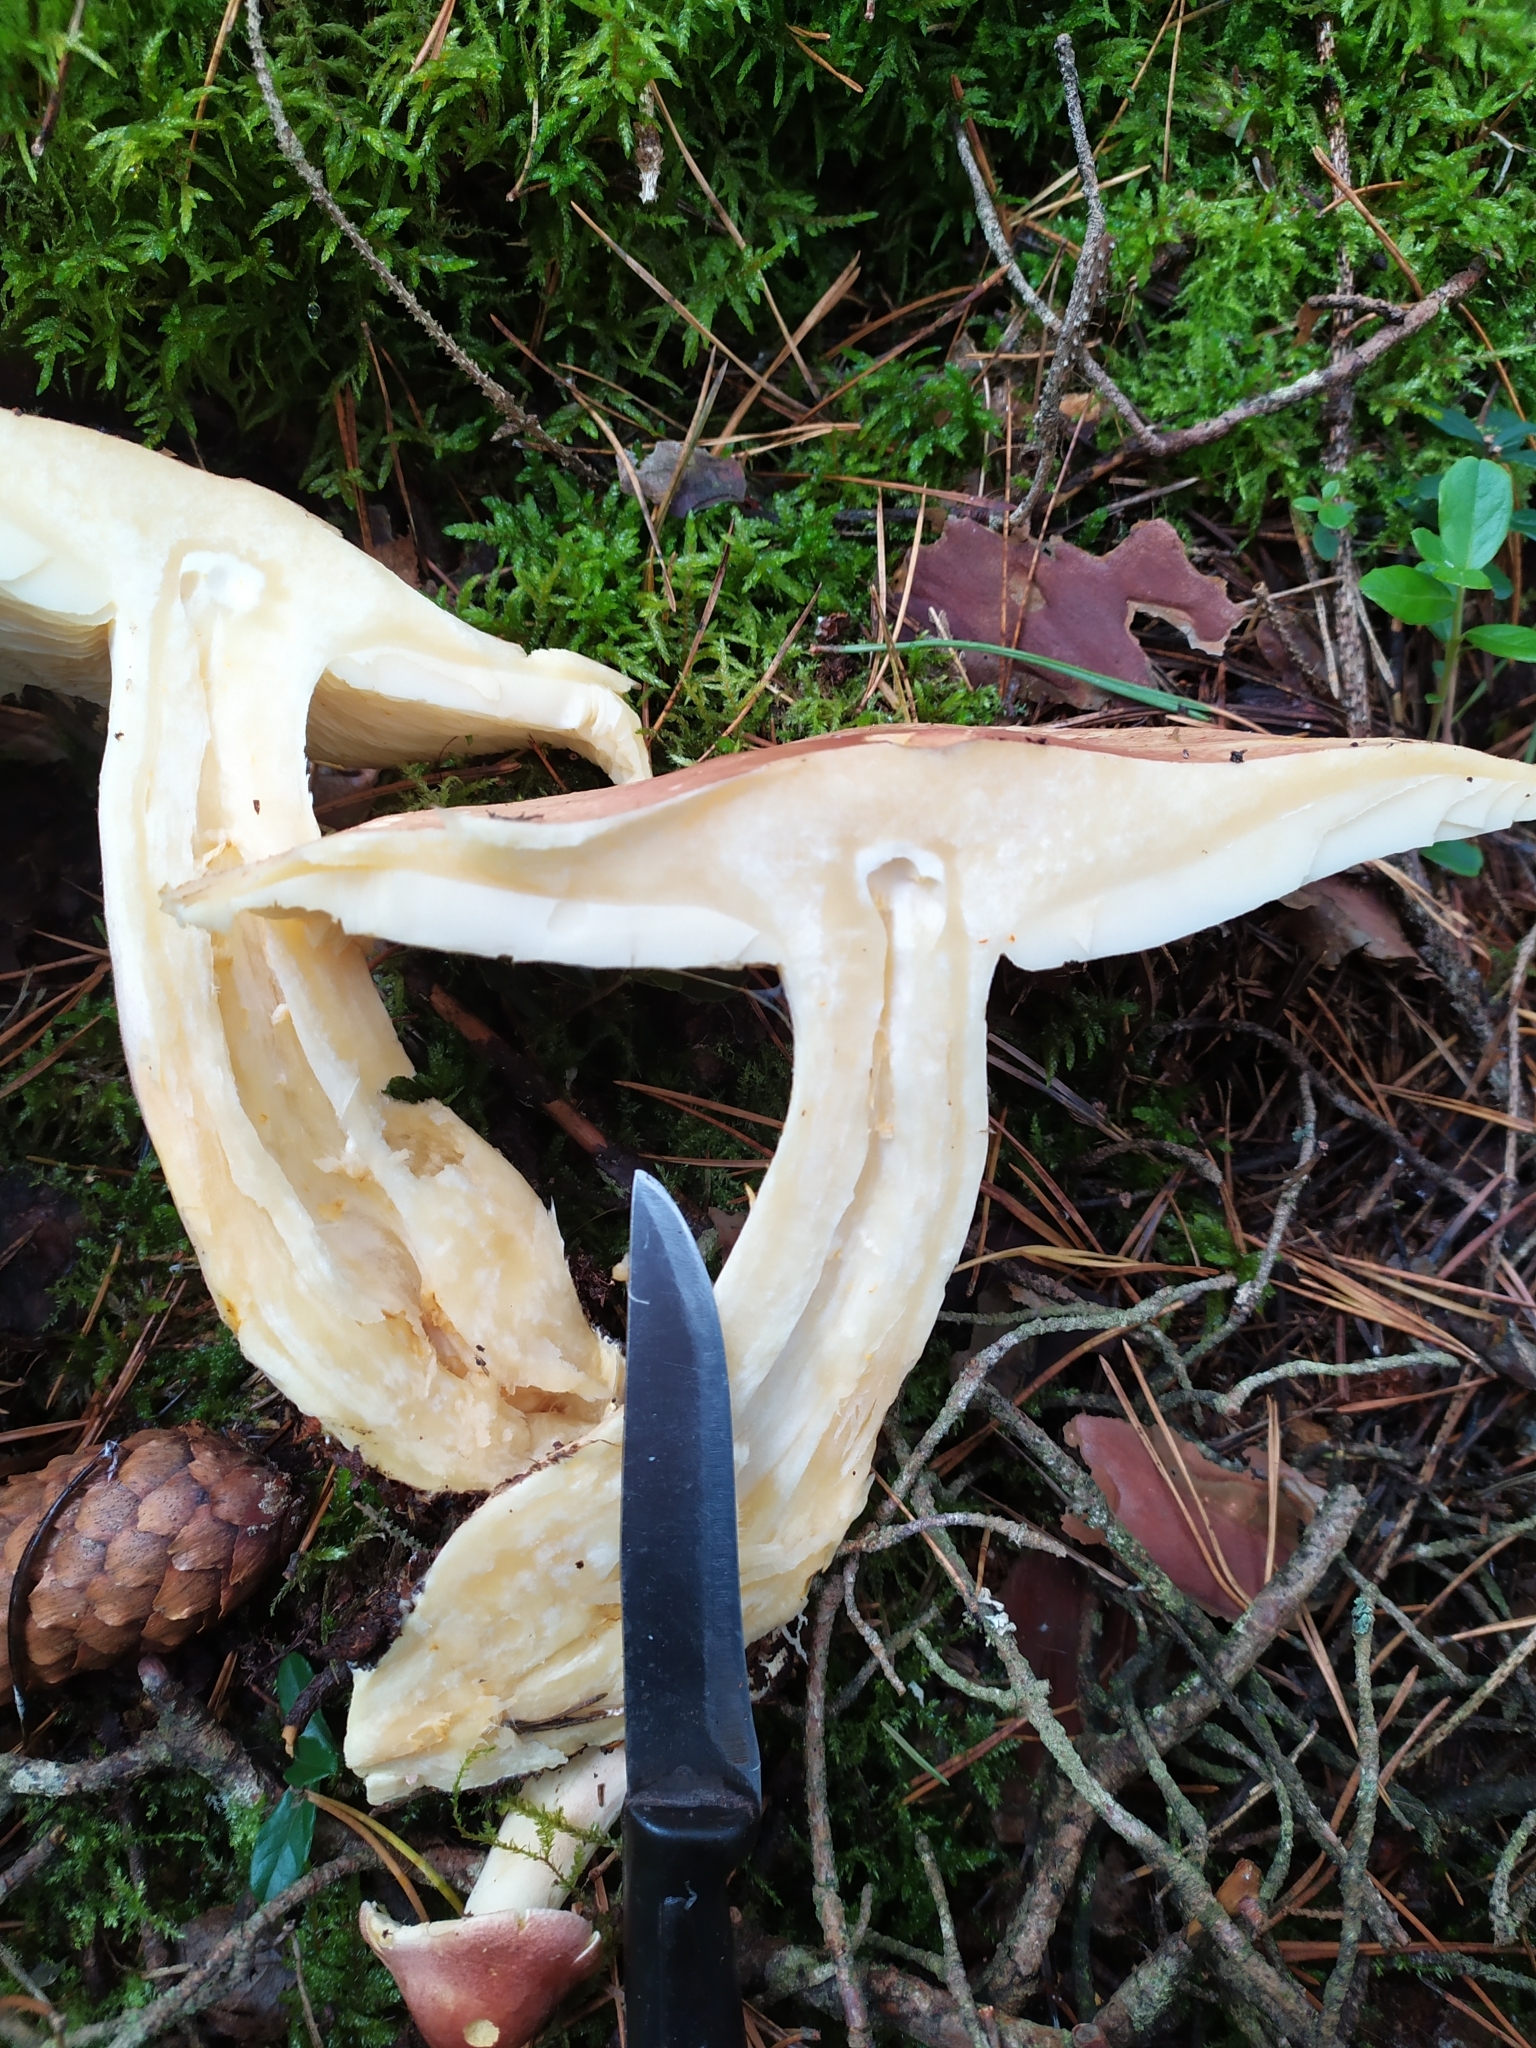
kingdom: Fungi
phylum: Basidiomycota
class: Agaricomycetes
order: Agaricales
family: Tricholomataceae
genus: Tricholomopsis
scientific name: Tricholomopsis rutilans
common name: Plums and custard
